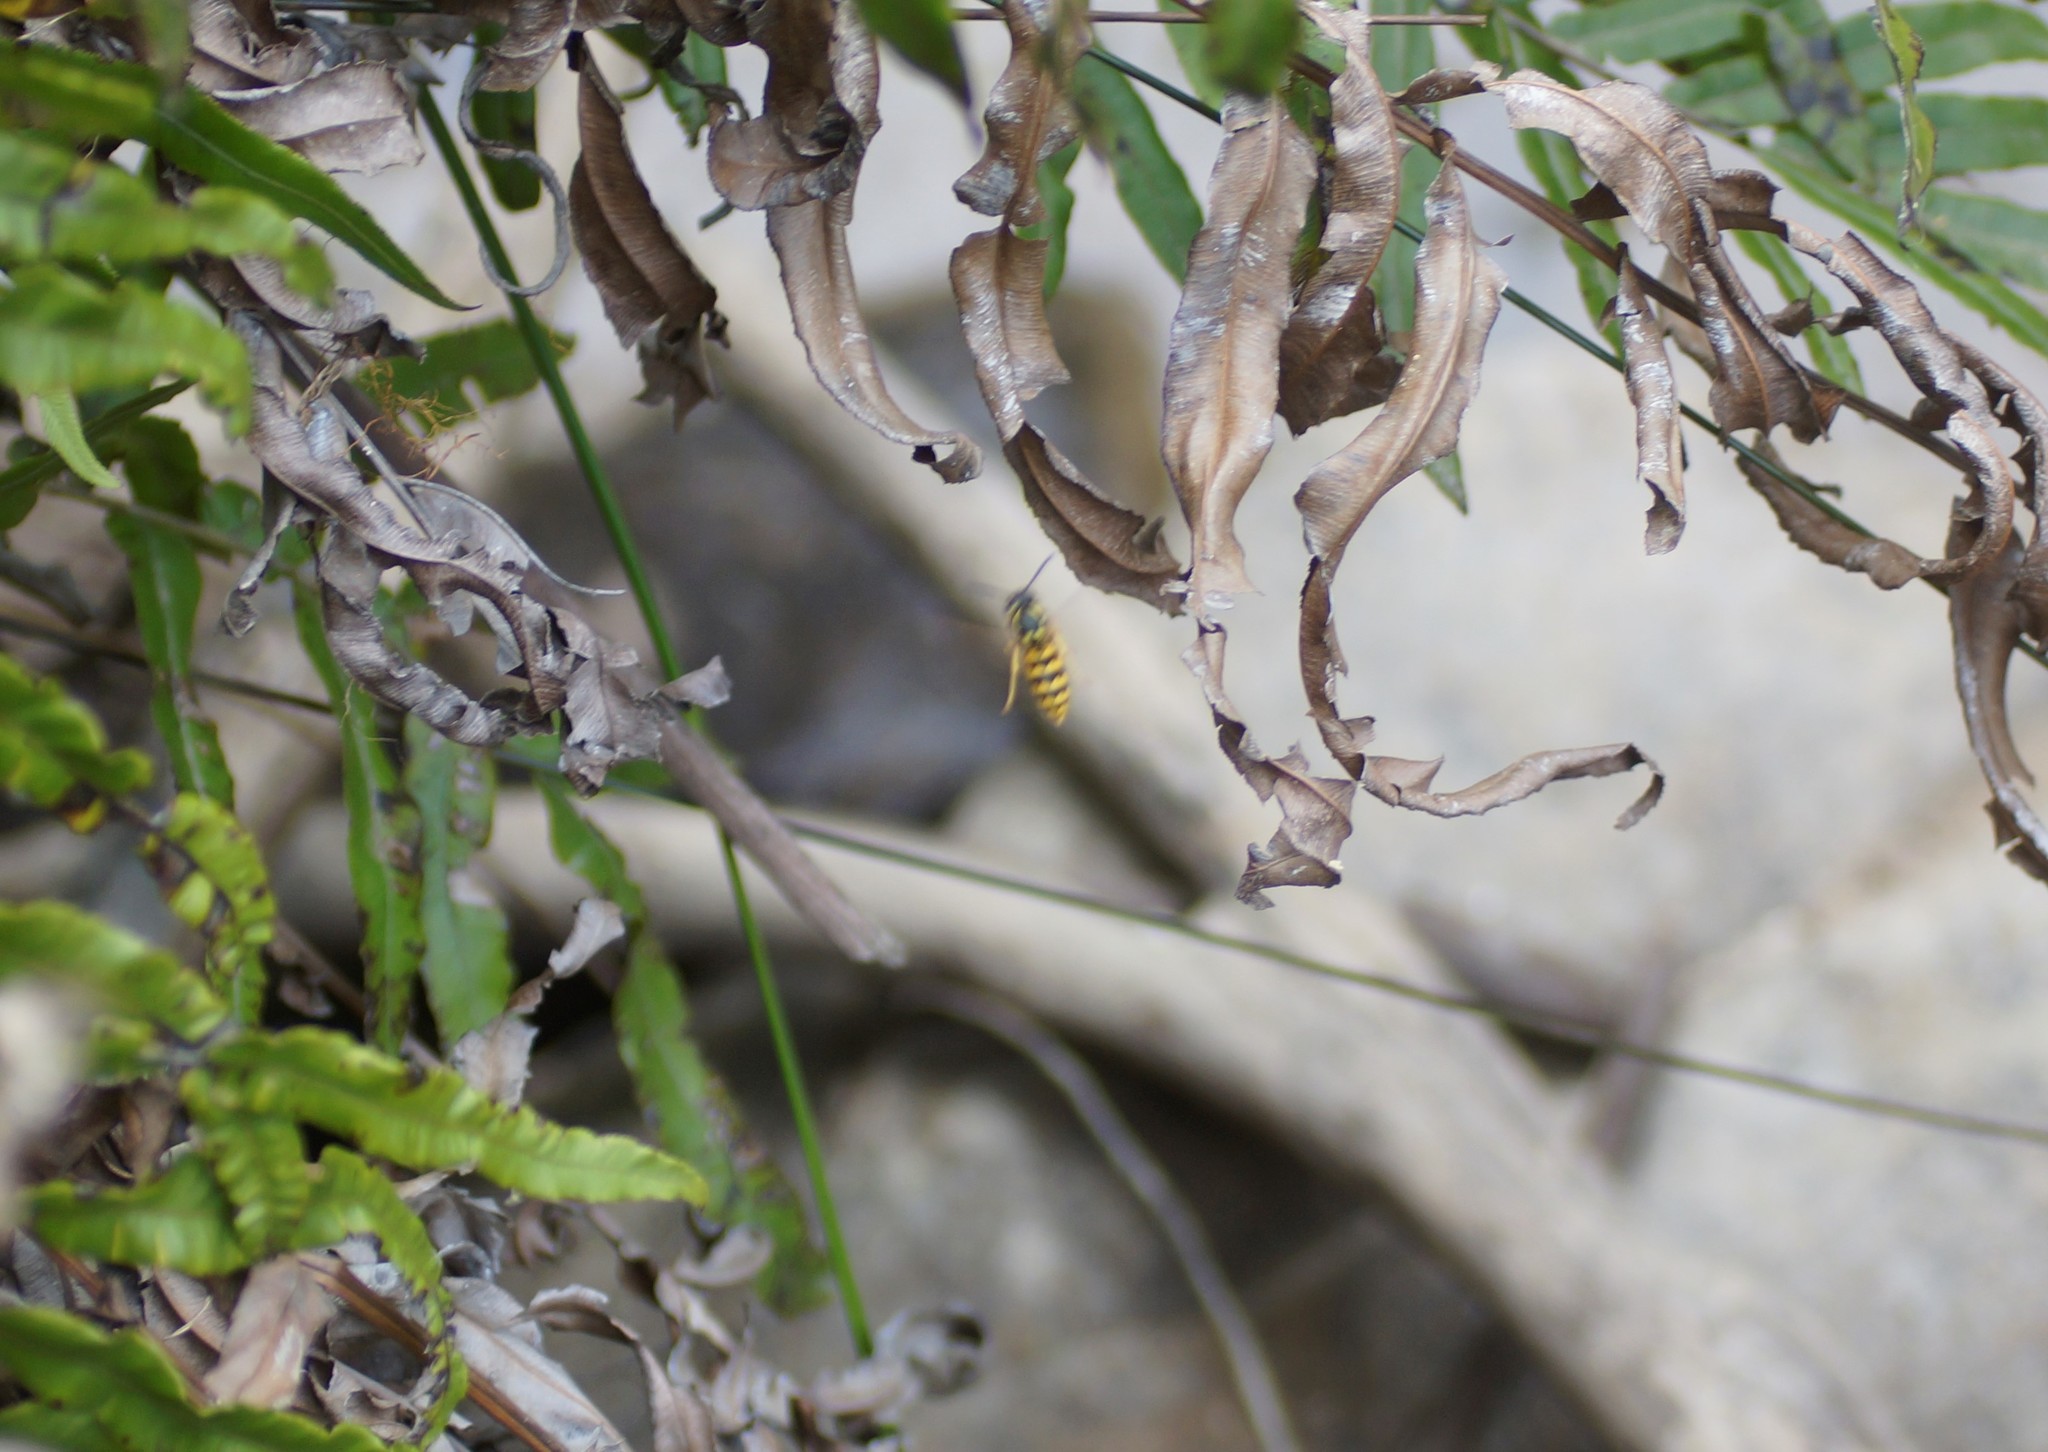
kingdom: Animalia
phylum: Arthropoda
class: Insecta
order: Hymenoptera
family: Vespidae
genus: Vespula
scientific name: Vespula germanica
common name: German wasp
